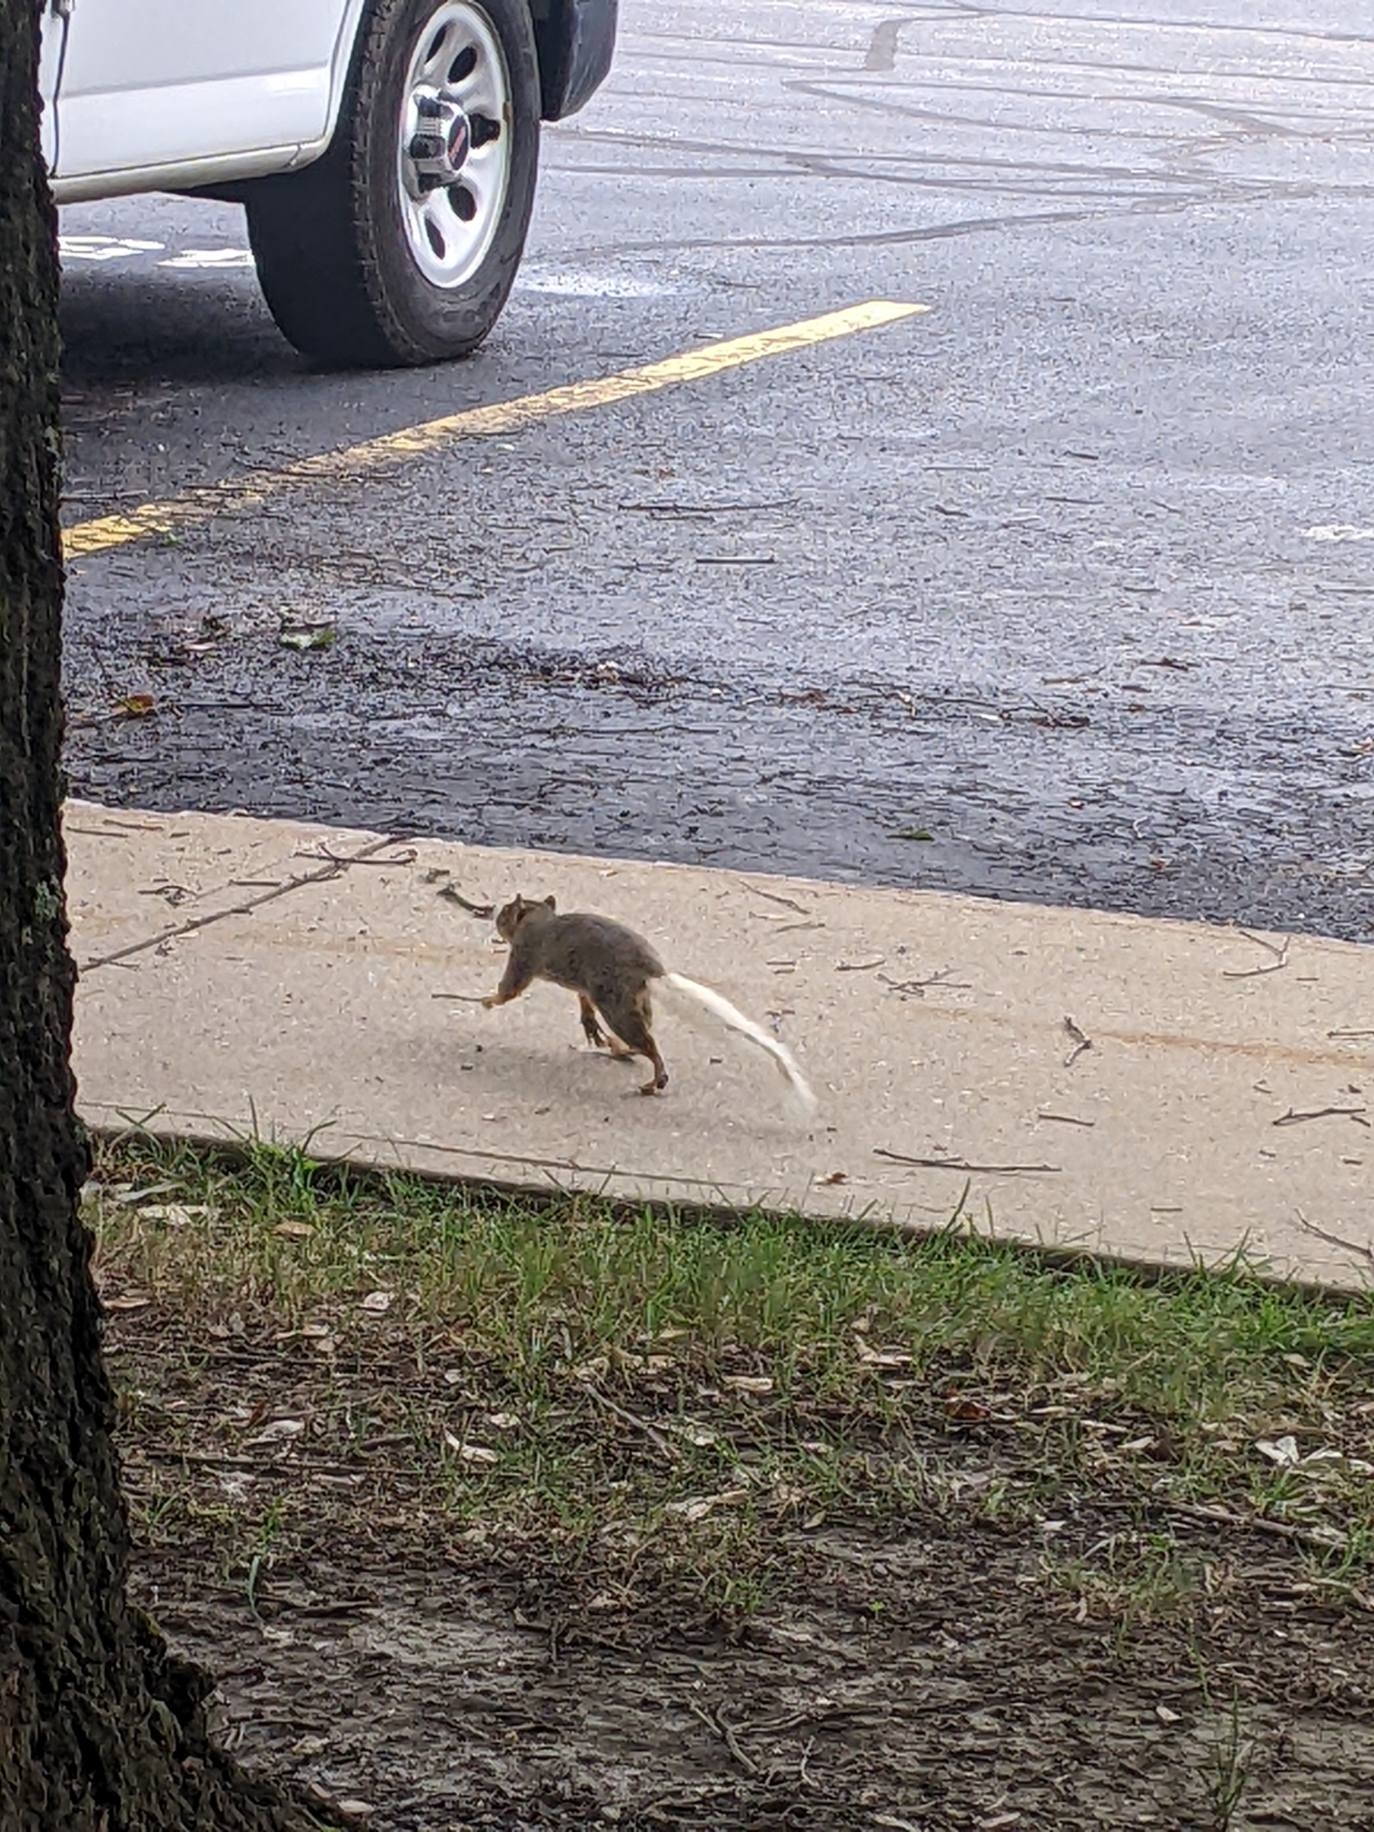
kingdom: Animalia
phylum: Chordata
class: Mammalia
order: Rodentia
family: Sciuridae
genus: Sciurus
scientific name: Sciurus carolinensis
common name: Eastern gray squirrel
